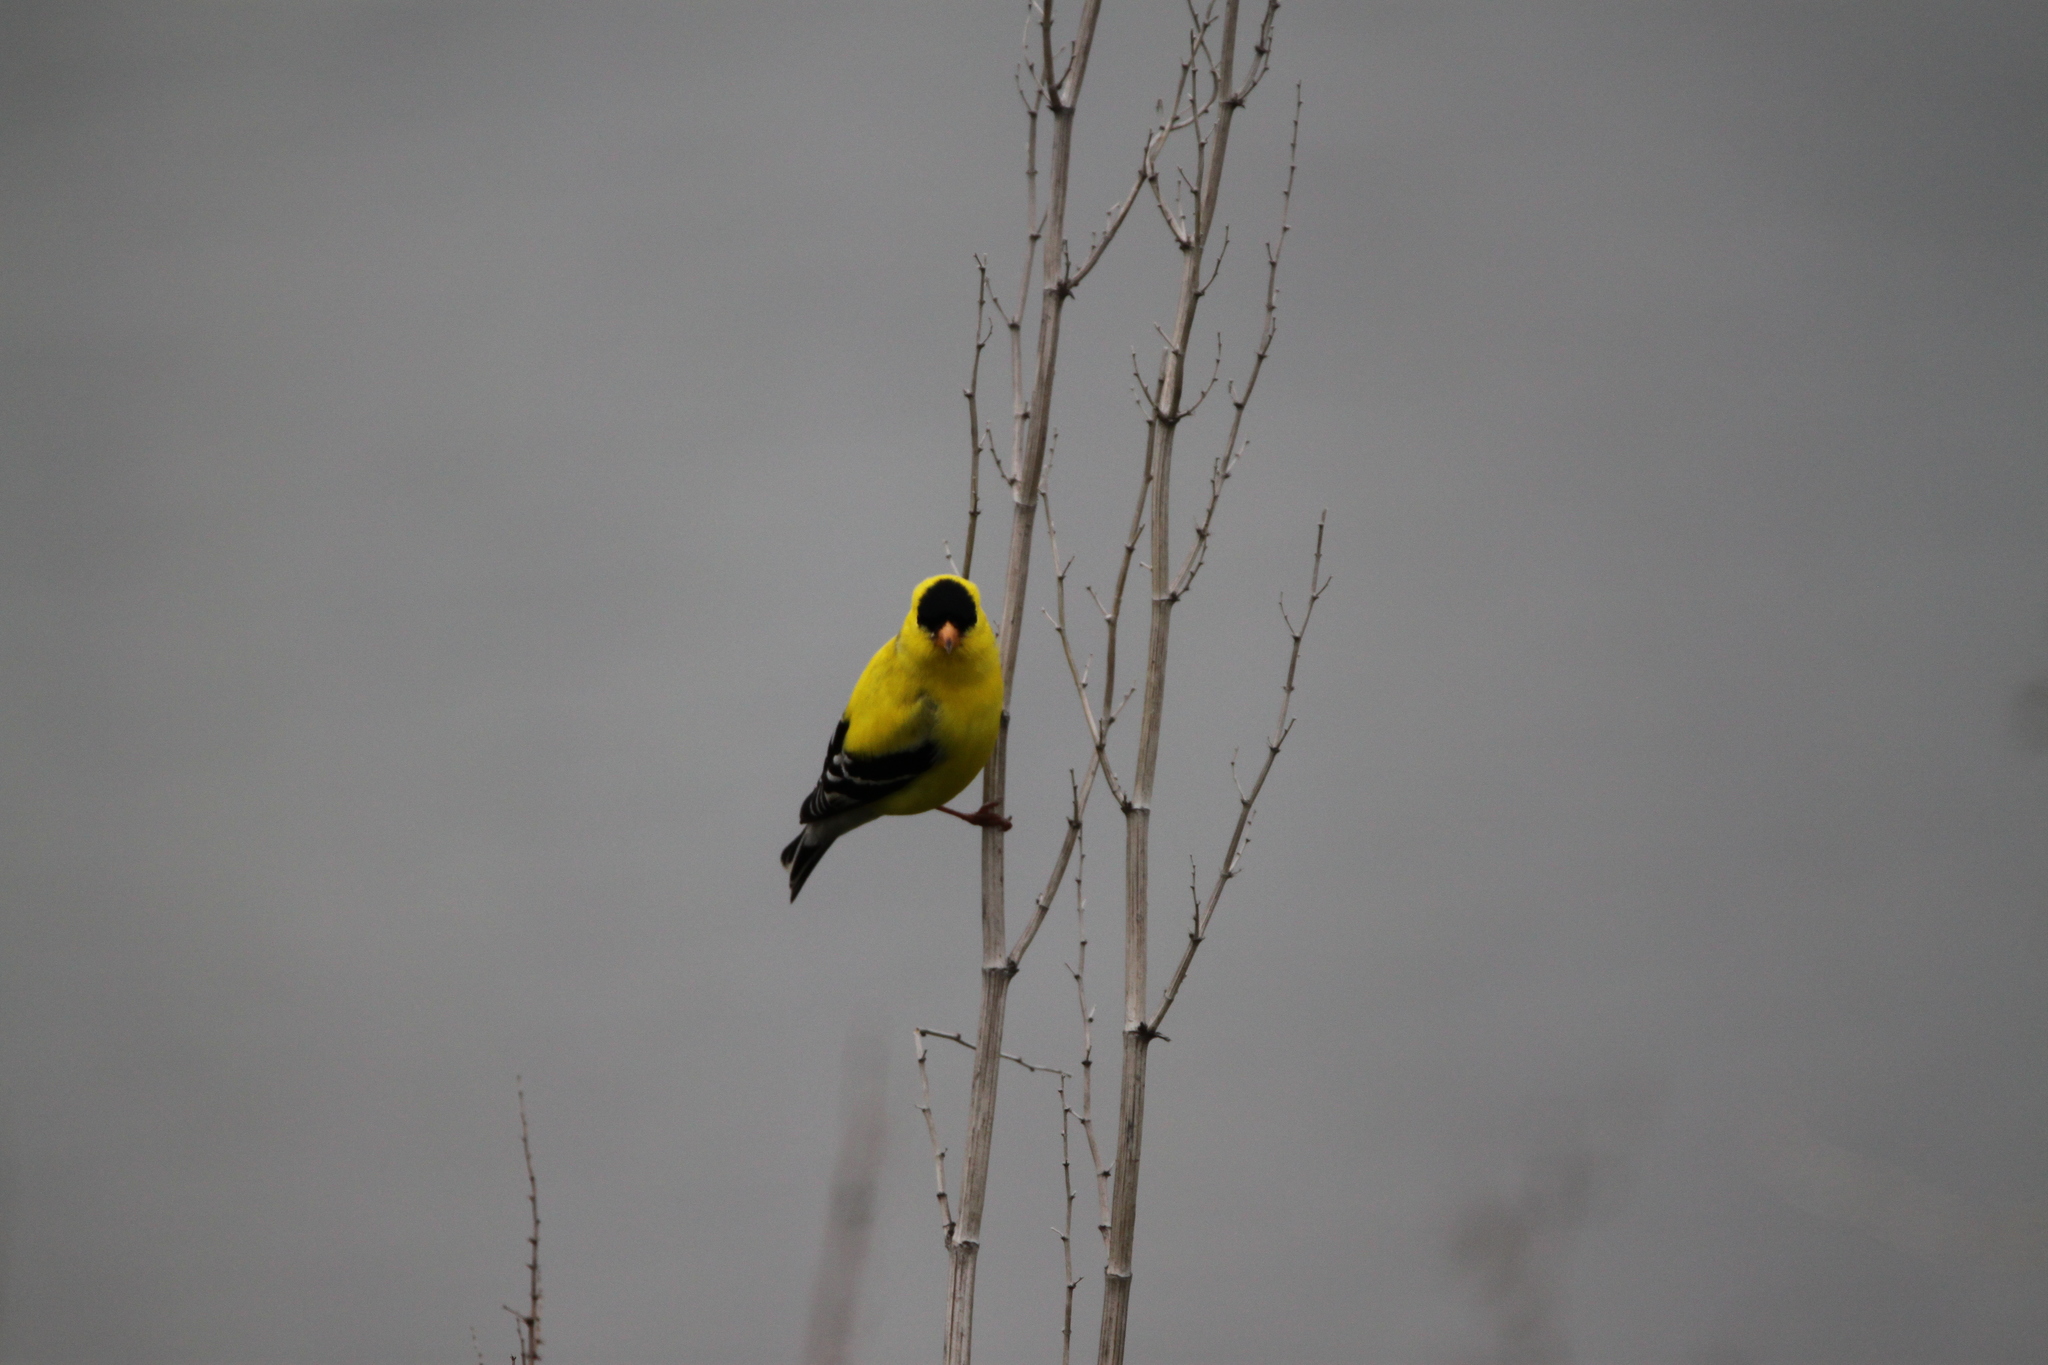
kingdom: Animalia
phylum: Chordata
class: Aves
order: Passeriformes
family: Fringillidae
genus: Spinus
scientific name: Spinus tristis
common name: American goldfinch
